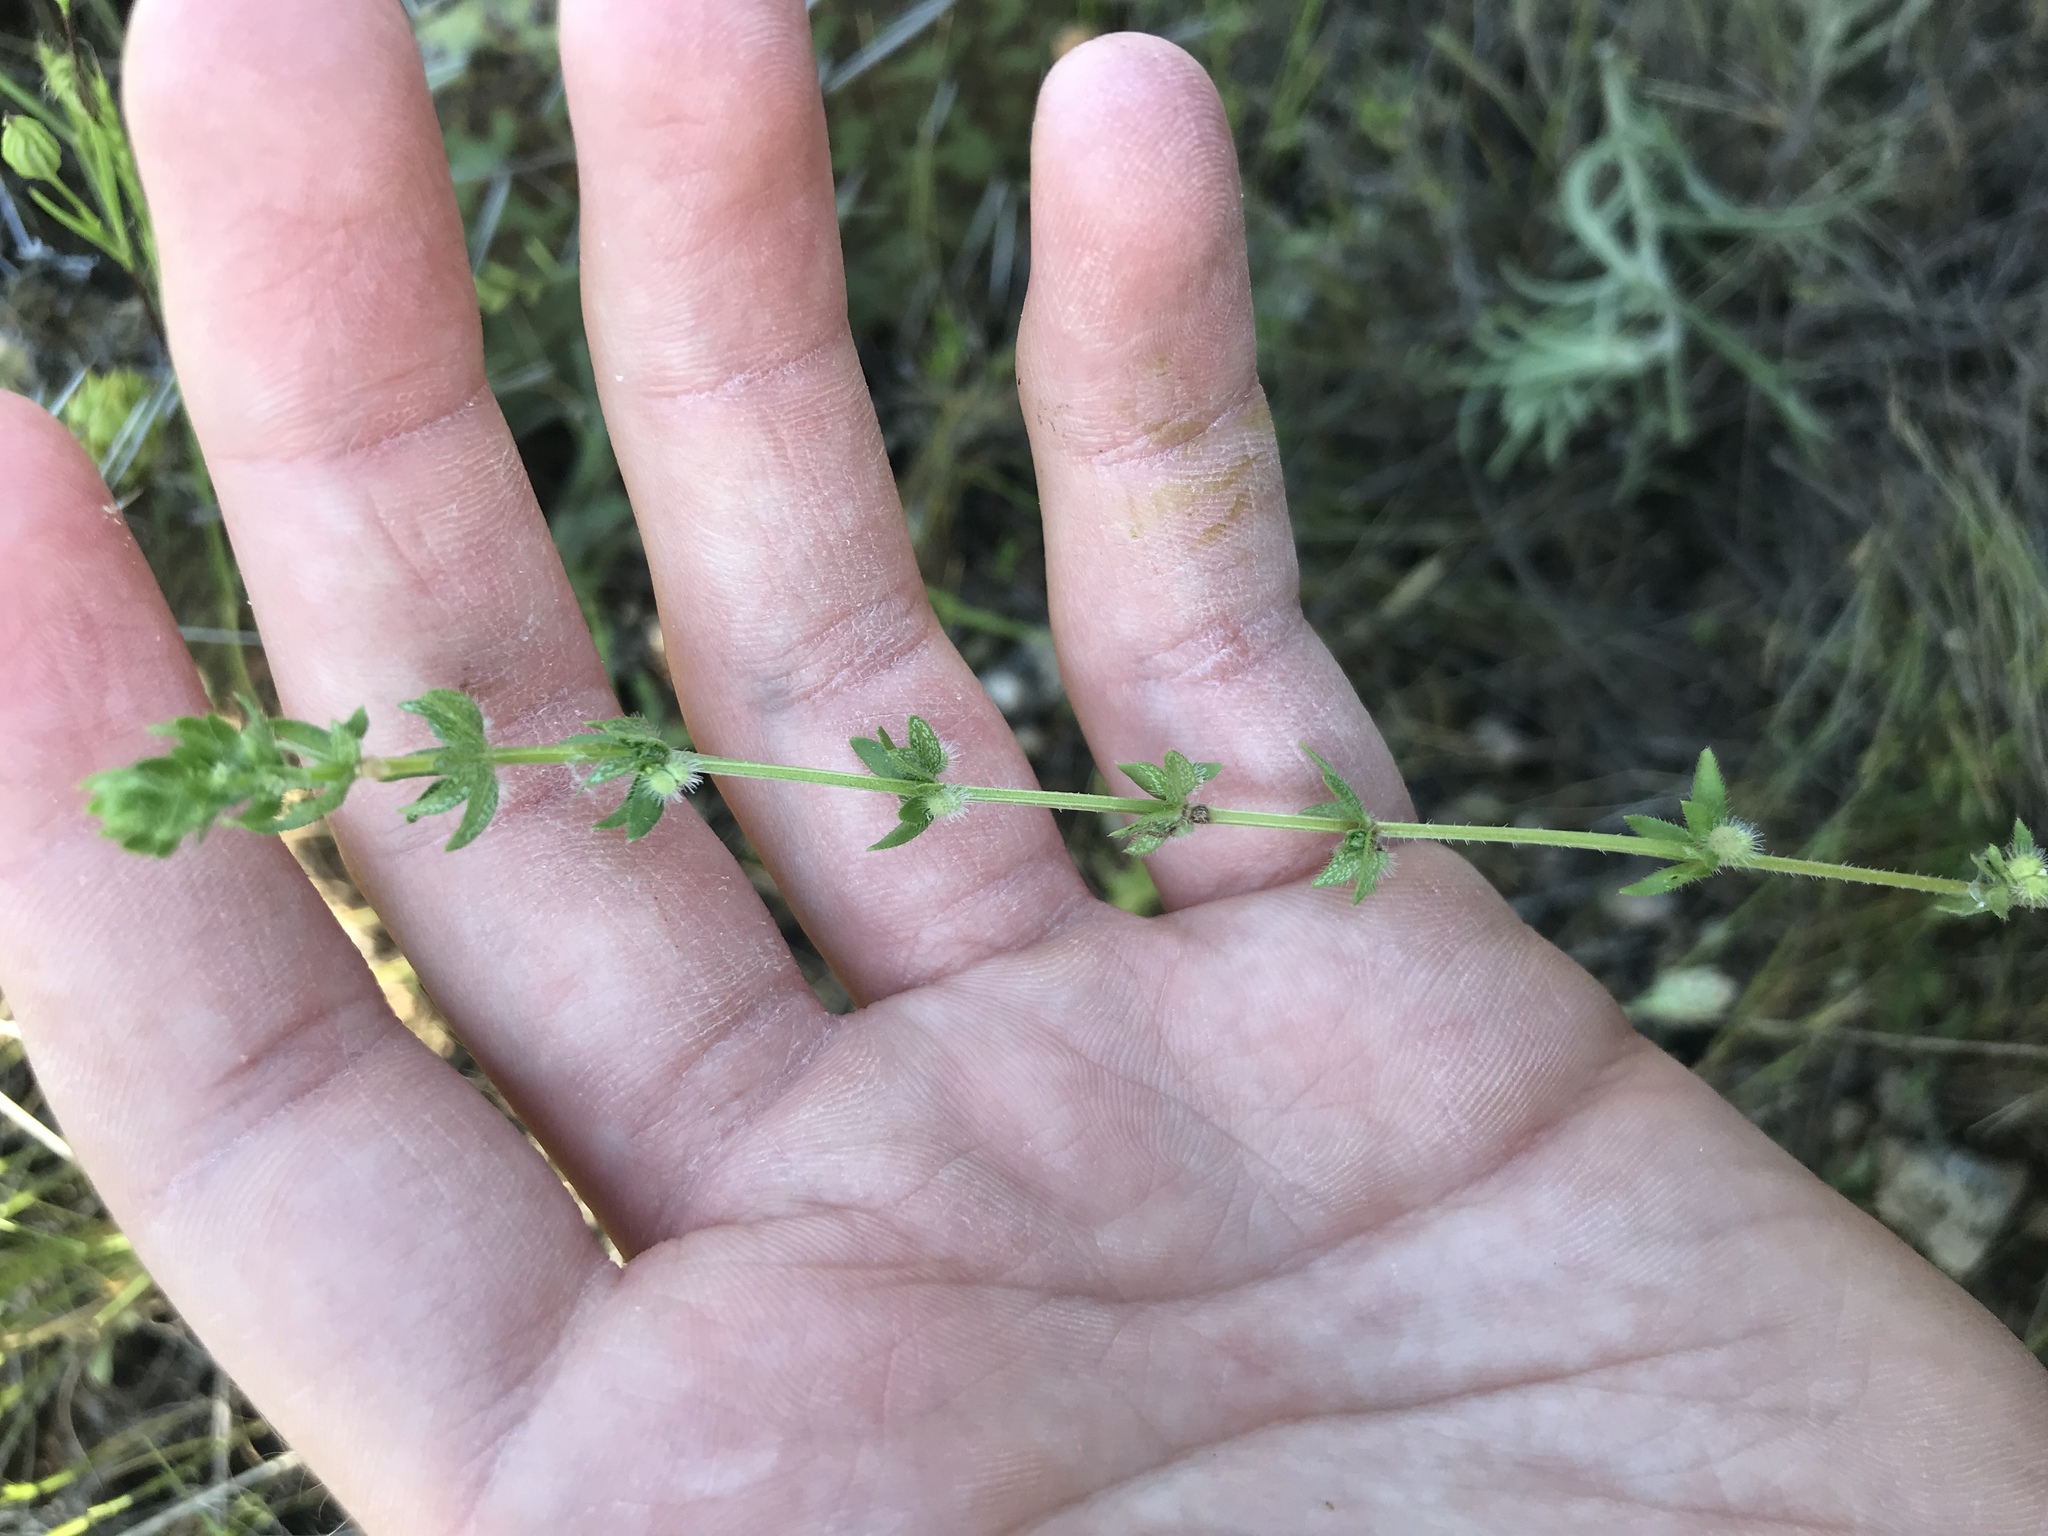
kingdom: Plantae
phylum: Tracheophyta
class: Magnoliopsida
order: Gentianales
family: Rubiaceae
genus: Galium
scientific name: Galium virgatum
